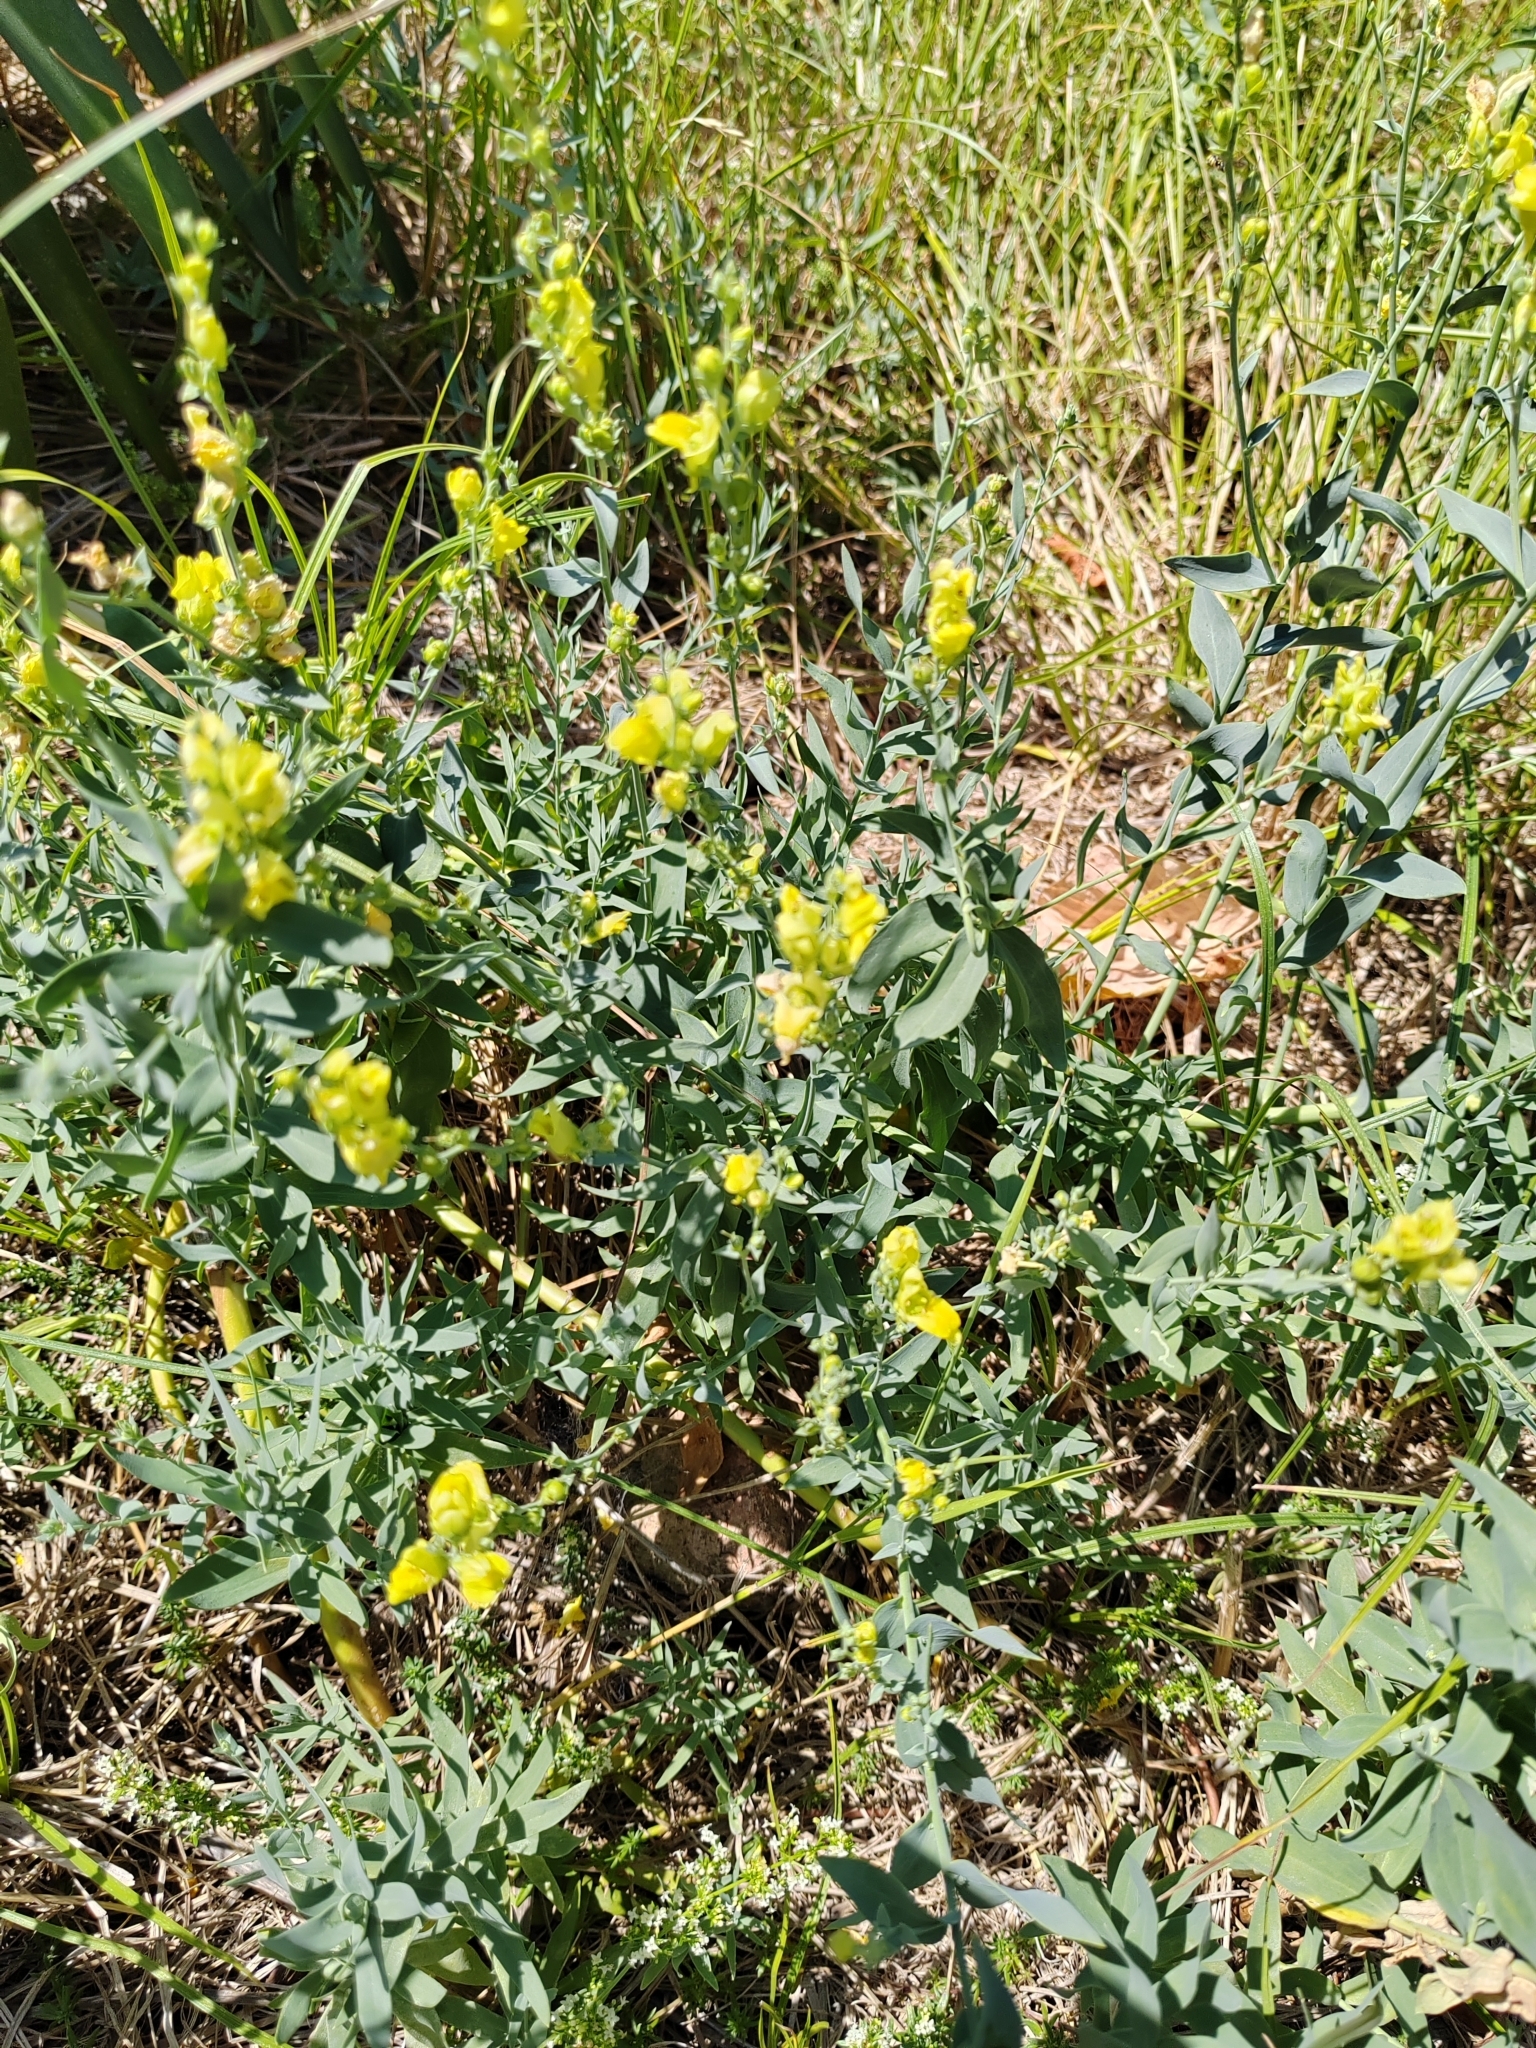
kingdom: Plantae
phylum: Tracheophyta
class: Magnoliopsida
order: Lamiales
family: Plantaginaceae
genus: Linaria
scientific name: Linaria genistifolia
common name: Broomleaf toadflax
